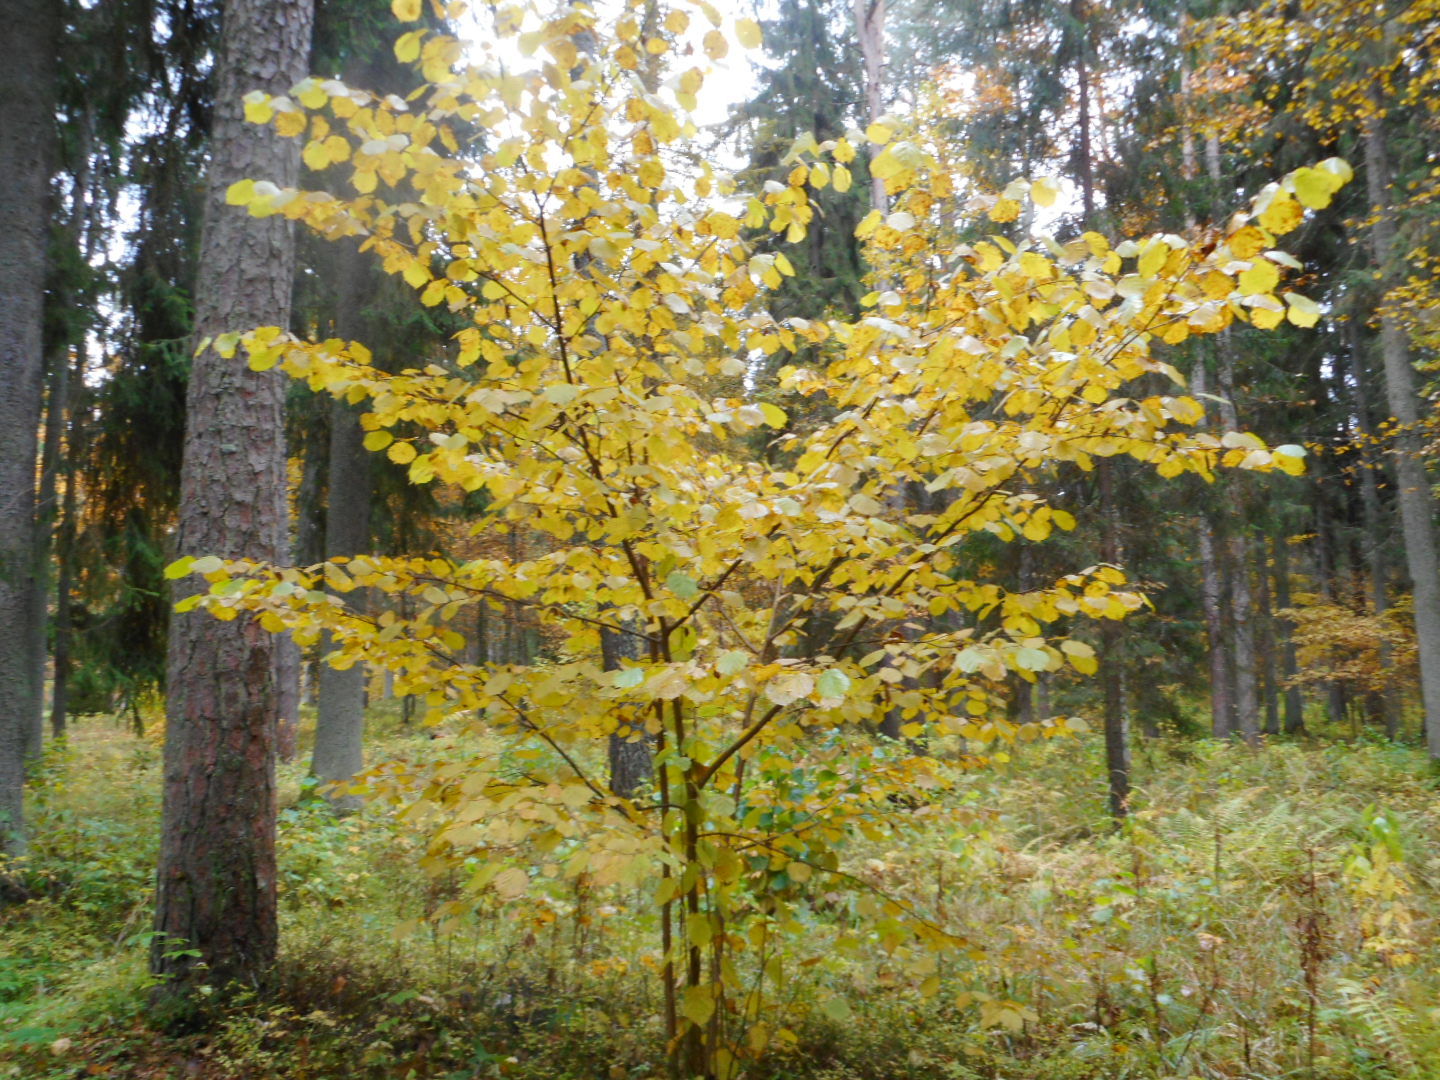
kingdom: Plantae
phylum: Tracheophyta
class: Magnoliopsida
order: Fagales
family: Betulaceae
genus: Corylus
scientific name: Corylus avellana
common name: European hazel
